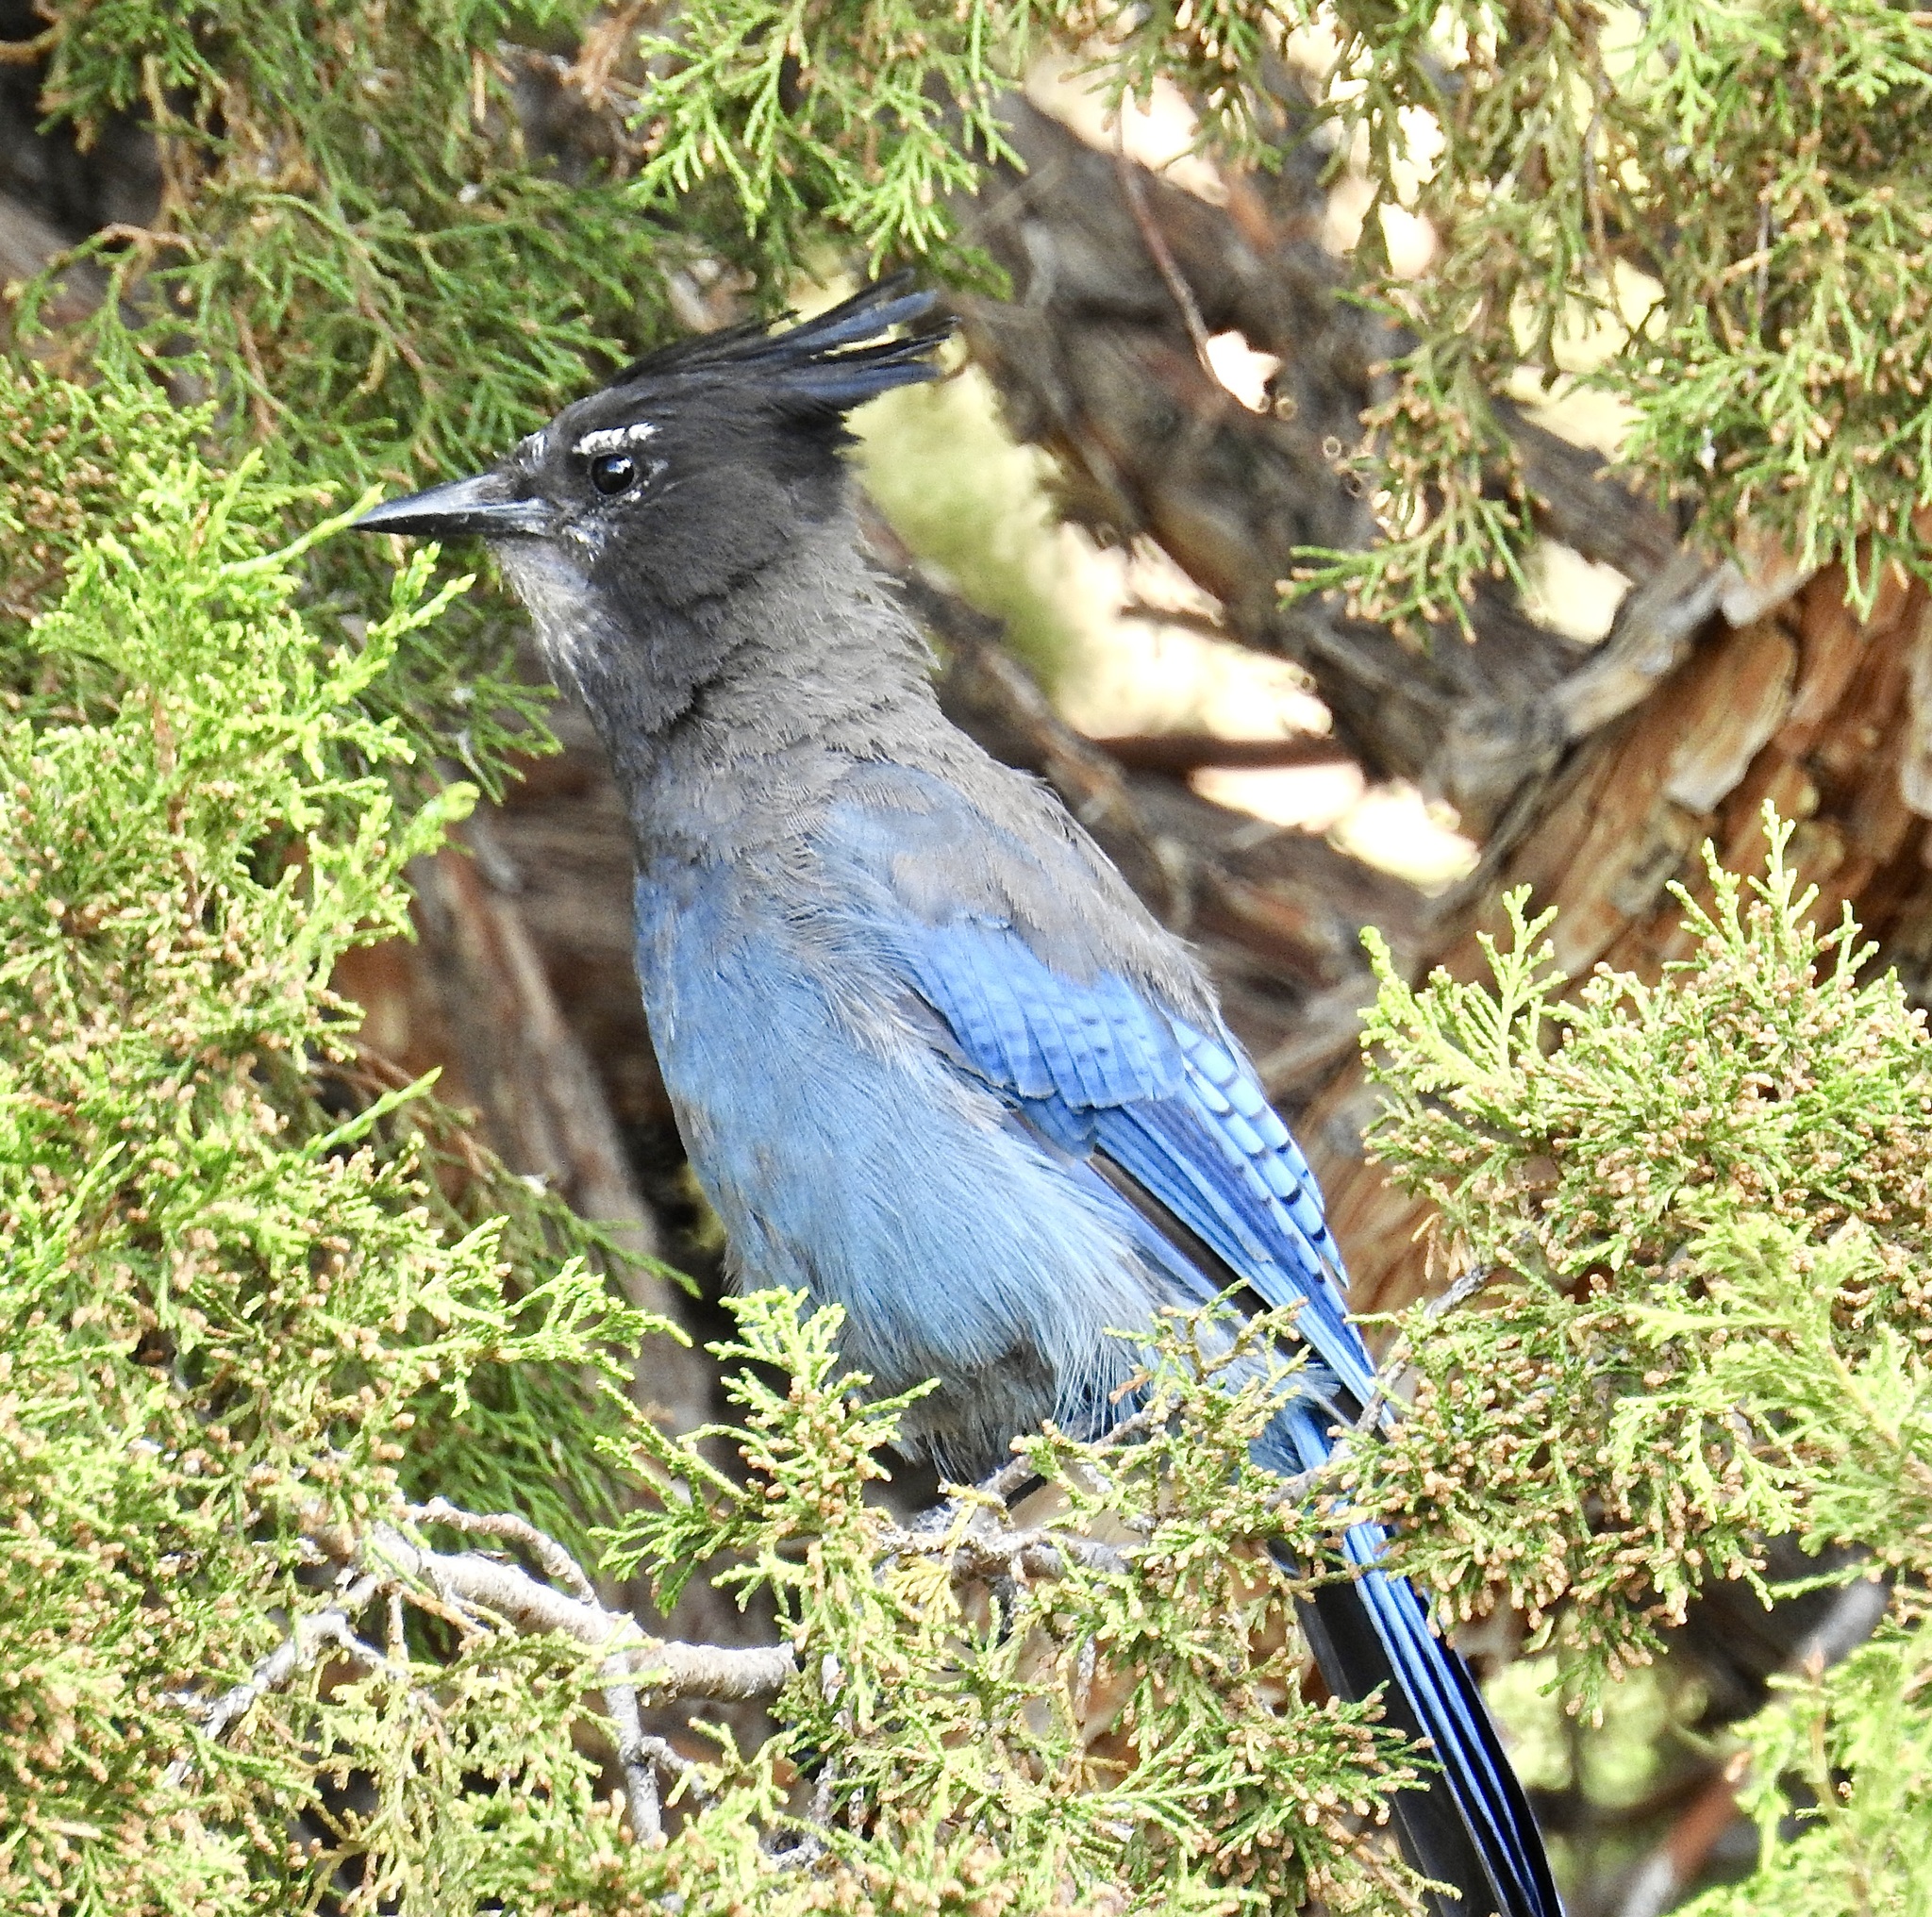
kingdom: Animalia
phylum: Chordata
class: Aves
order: Passeriformes
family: Corvidae
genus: Cyanocitta
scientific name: Cyanocitta stelleri
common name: Steller's jay
